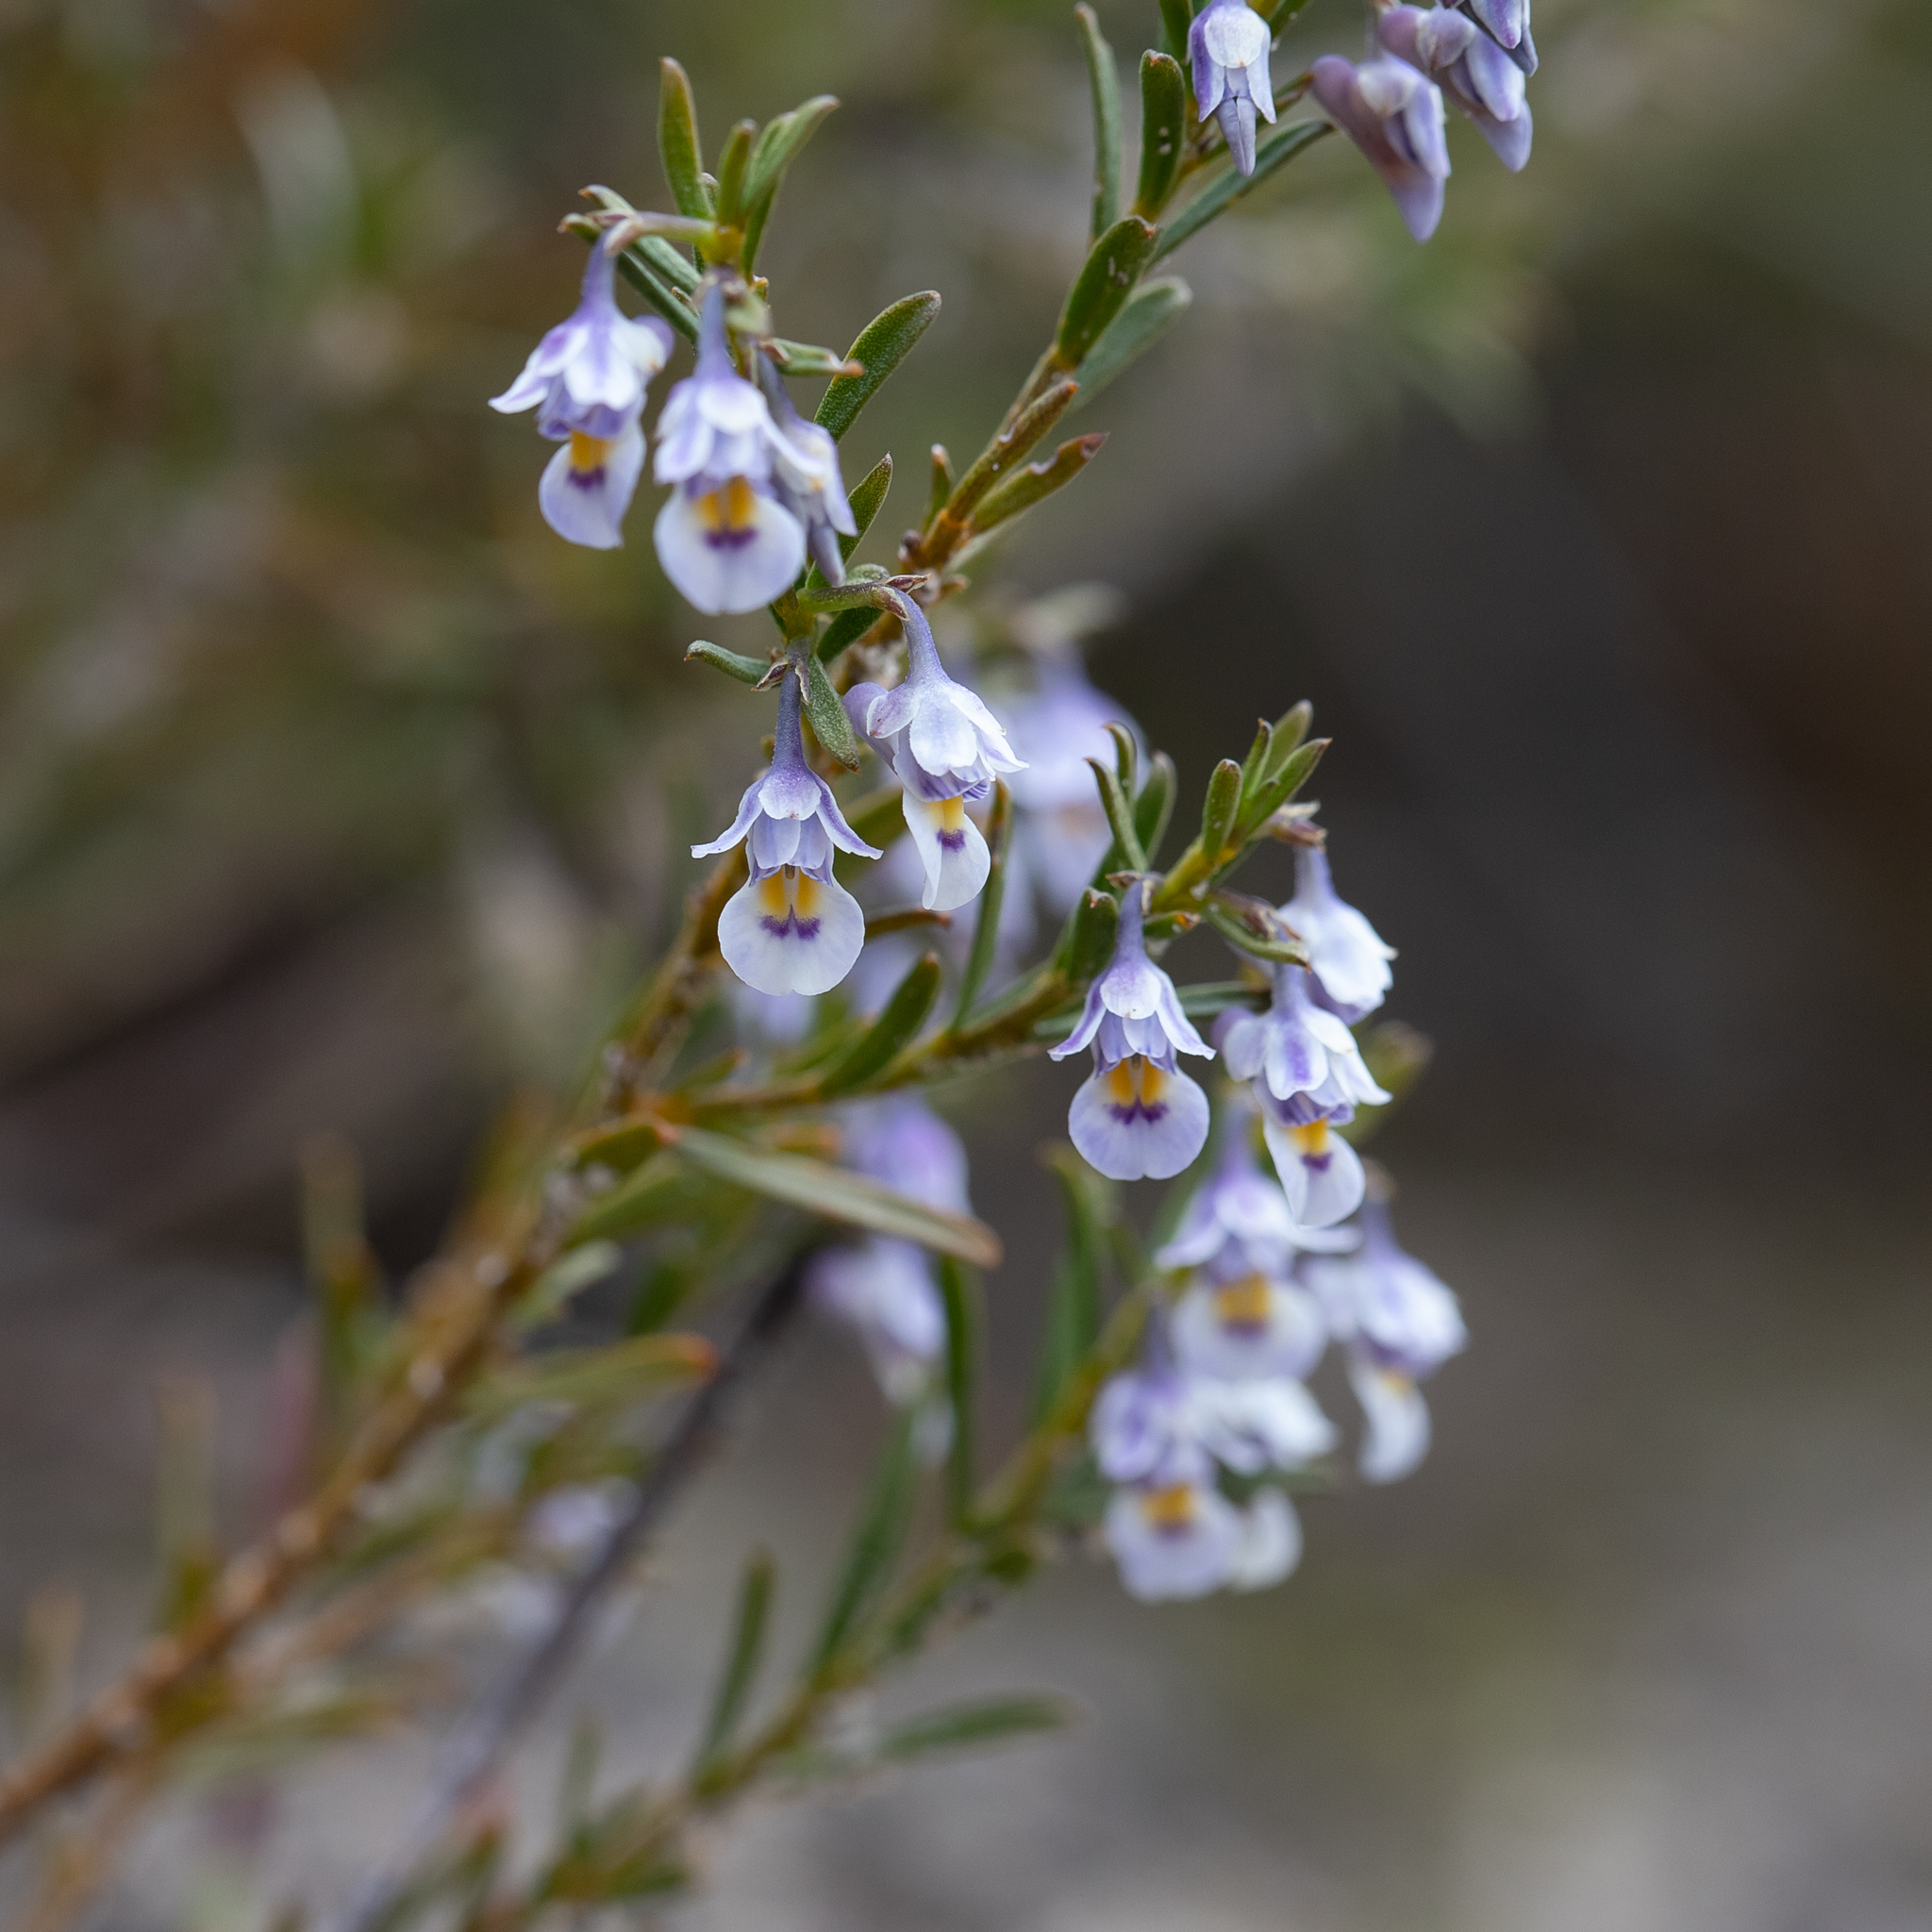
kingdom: Plantae
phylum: Tracheophyta
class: Magnoliopsida
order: Malpighiales
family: Violaceae
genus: Pigea
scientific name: Pigea floribunda
